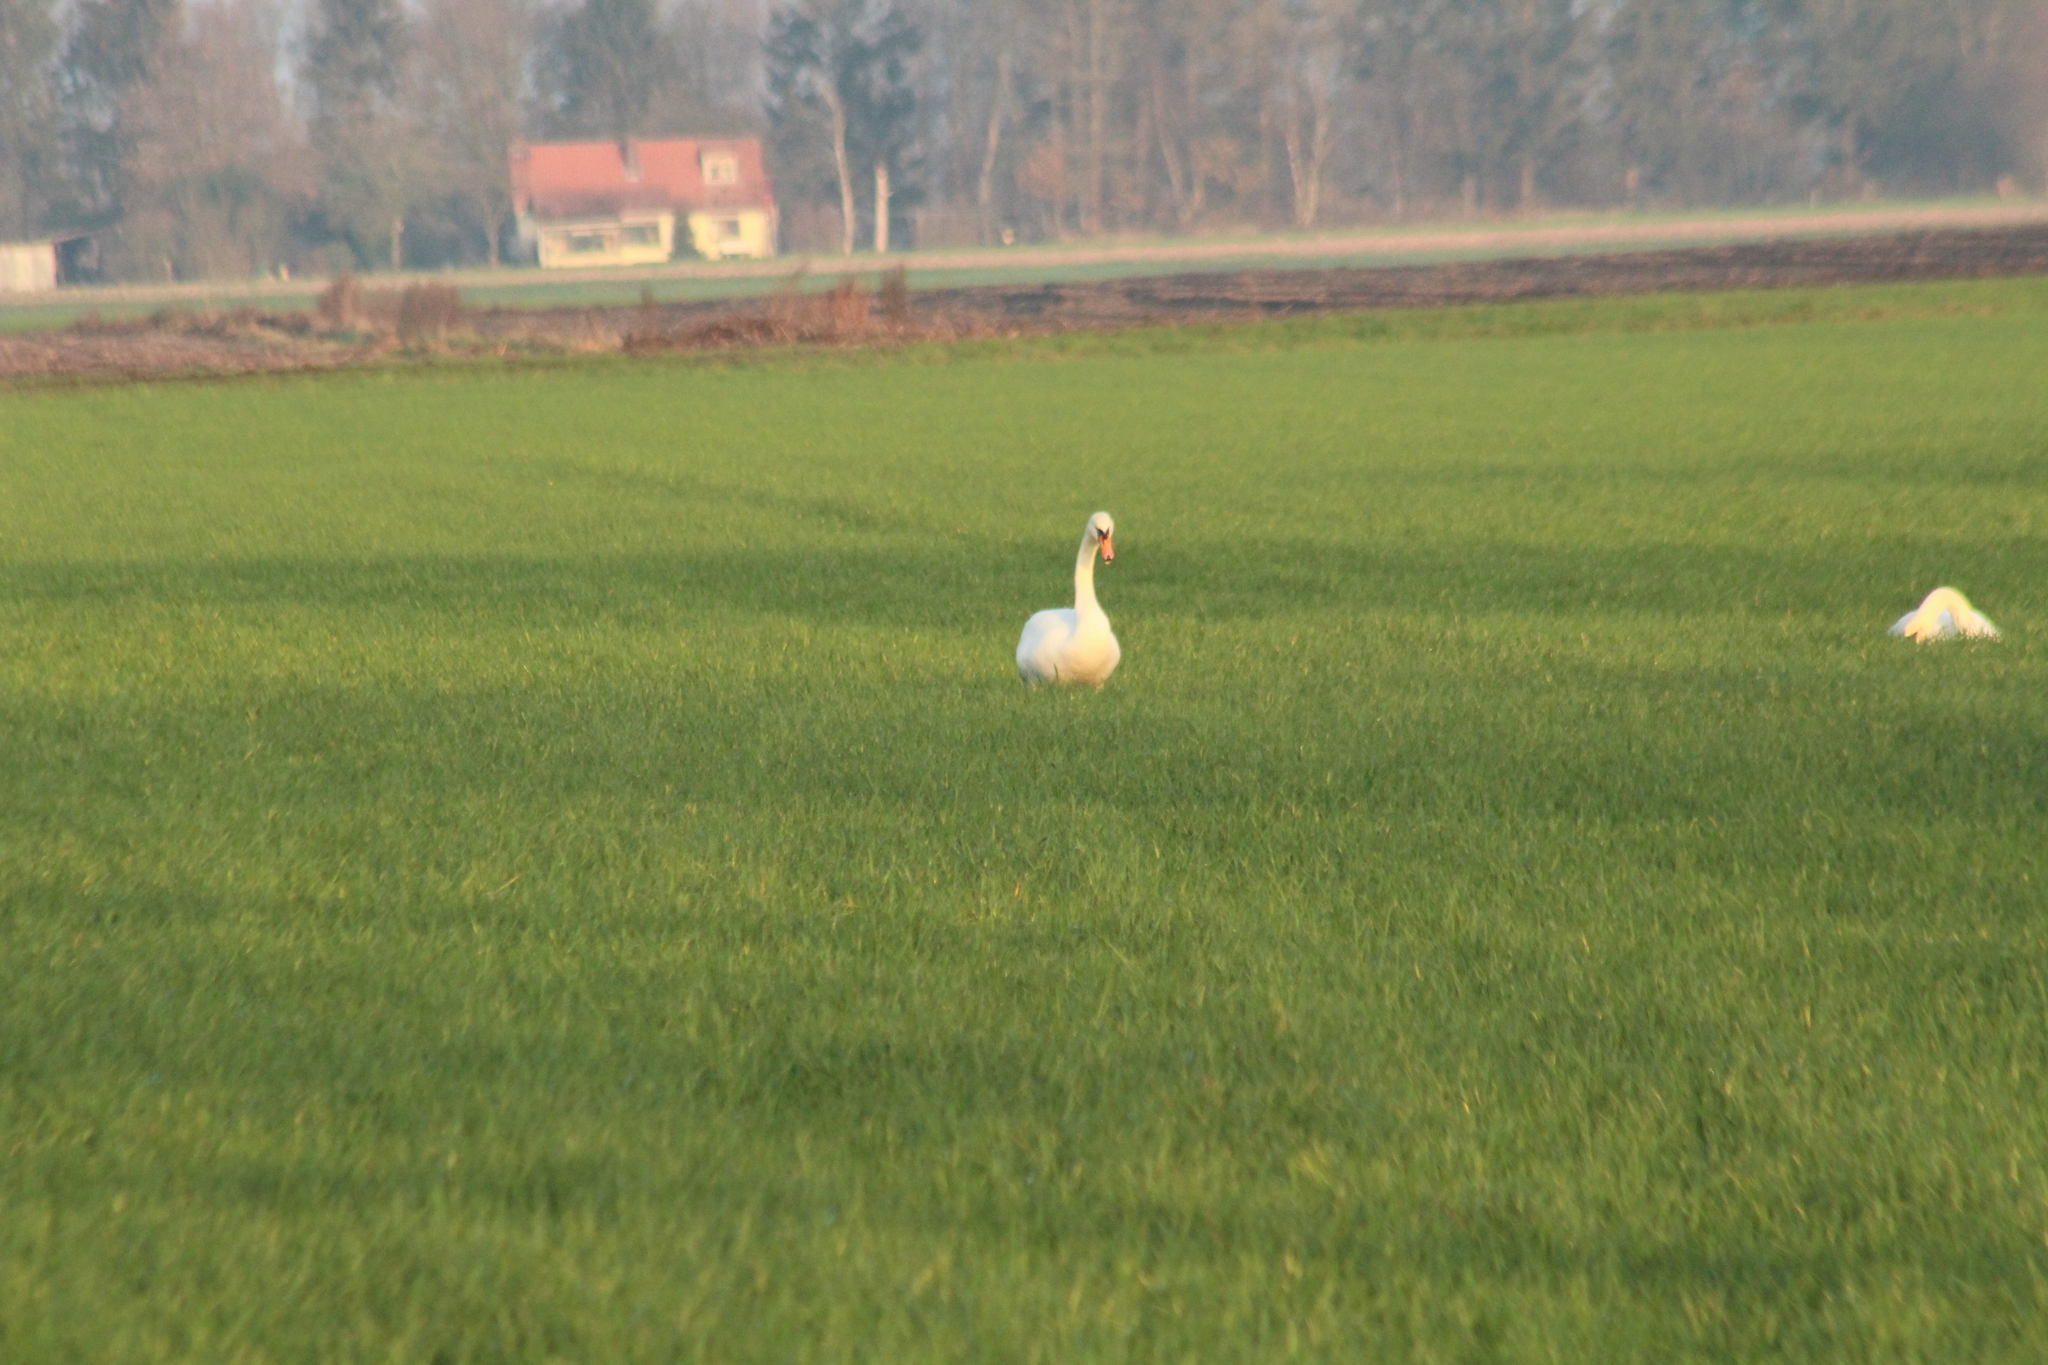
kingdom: Animalia
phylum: Chordata
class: Aves
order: Anseriformes
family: Anatidae
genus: Cygnus
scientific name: Cygnus olor
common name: Mute swan
